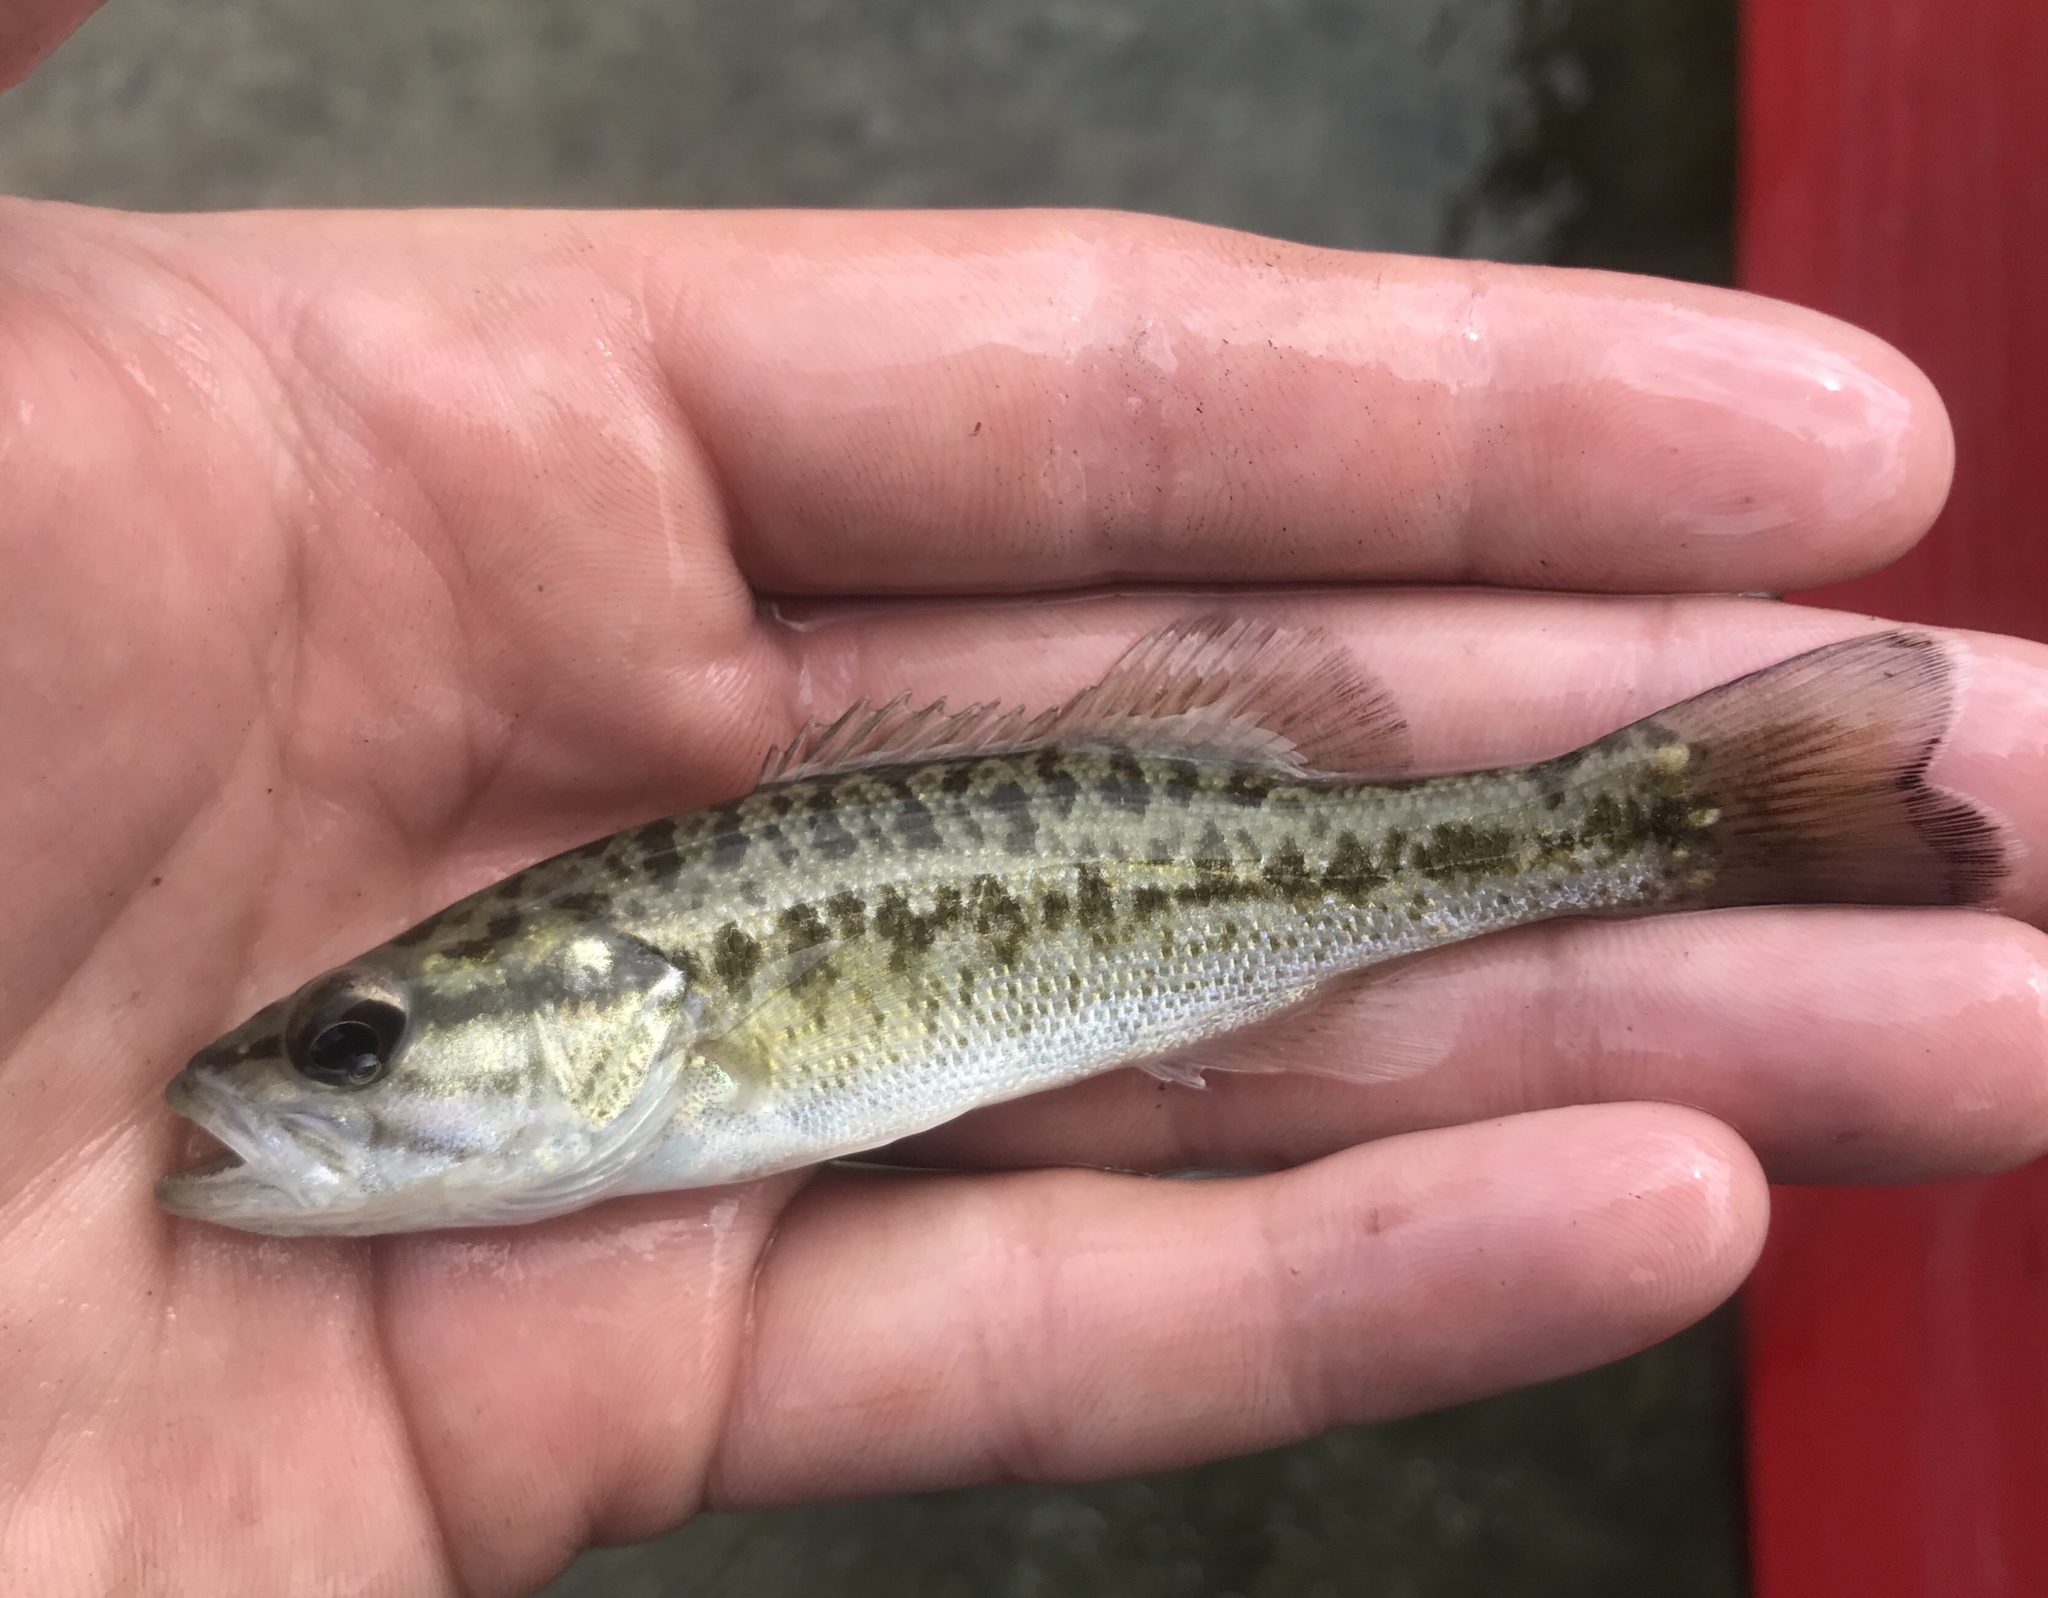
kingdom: Animalia
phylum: Chordata
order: Perciformes
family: Centrarchidae
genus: Micropterus
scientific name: Micropterus treculii
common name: Guadalupe bass
